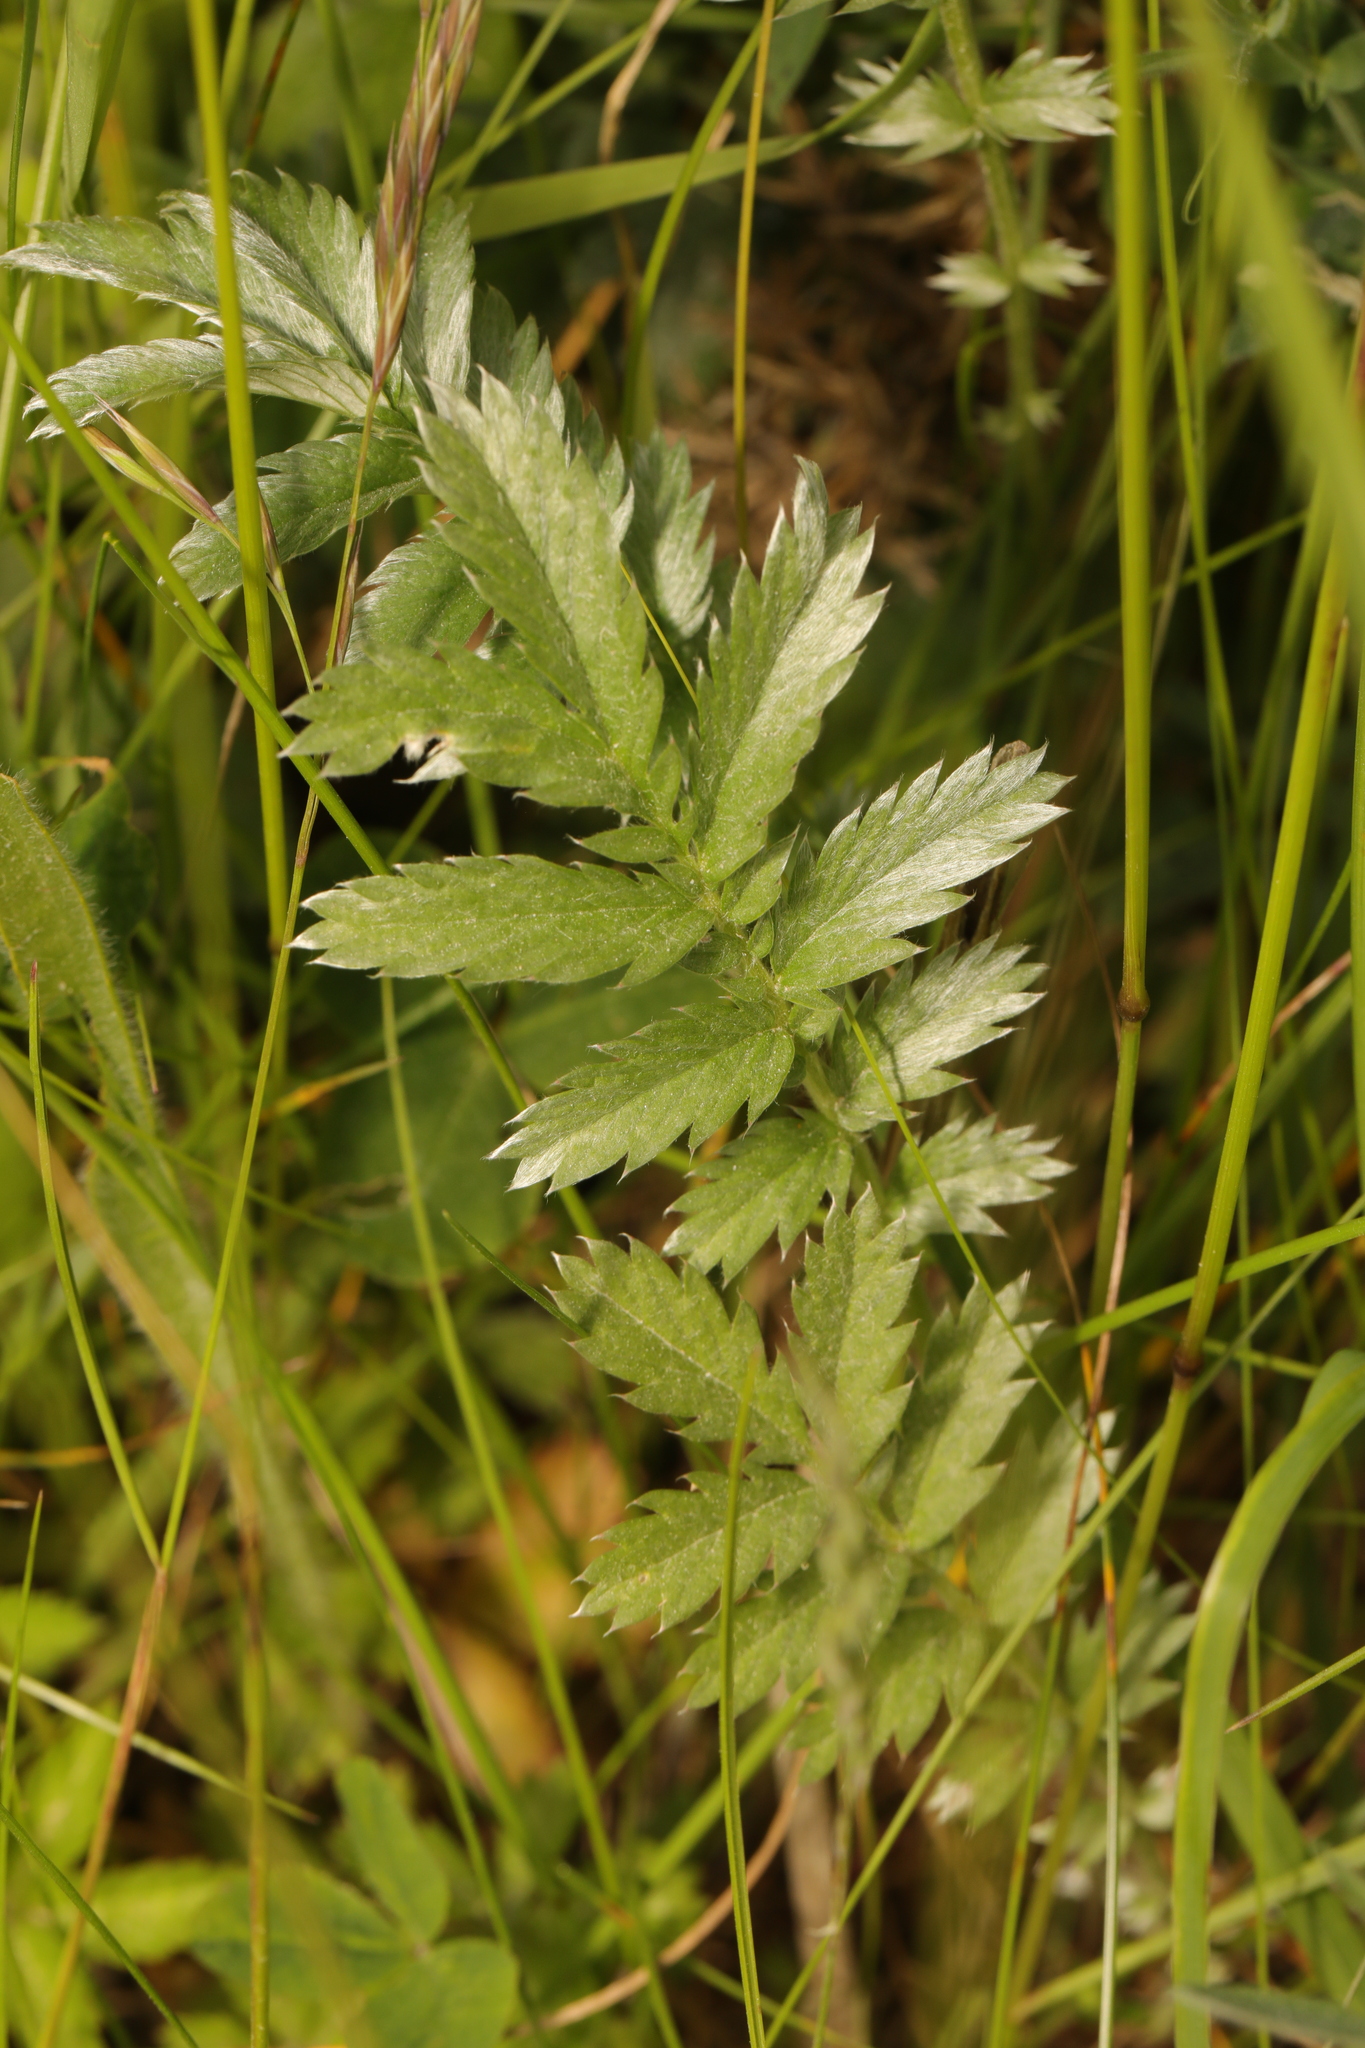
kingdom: Plantae
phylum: Tracheophyta
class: Magnoliopsida
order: Rosales
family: Rosaceae
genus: Argentina
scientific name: Argentina anserina
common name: Common silverweed
